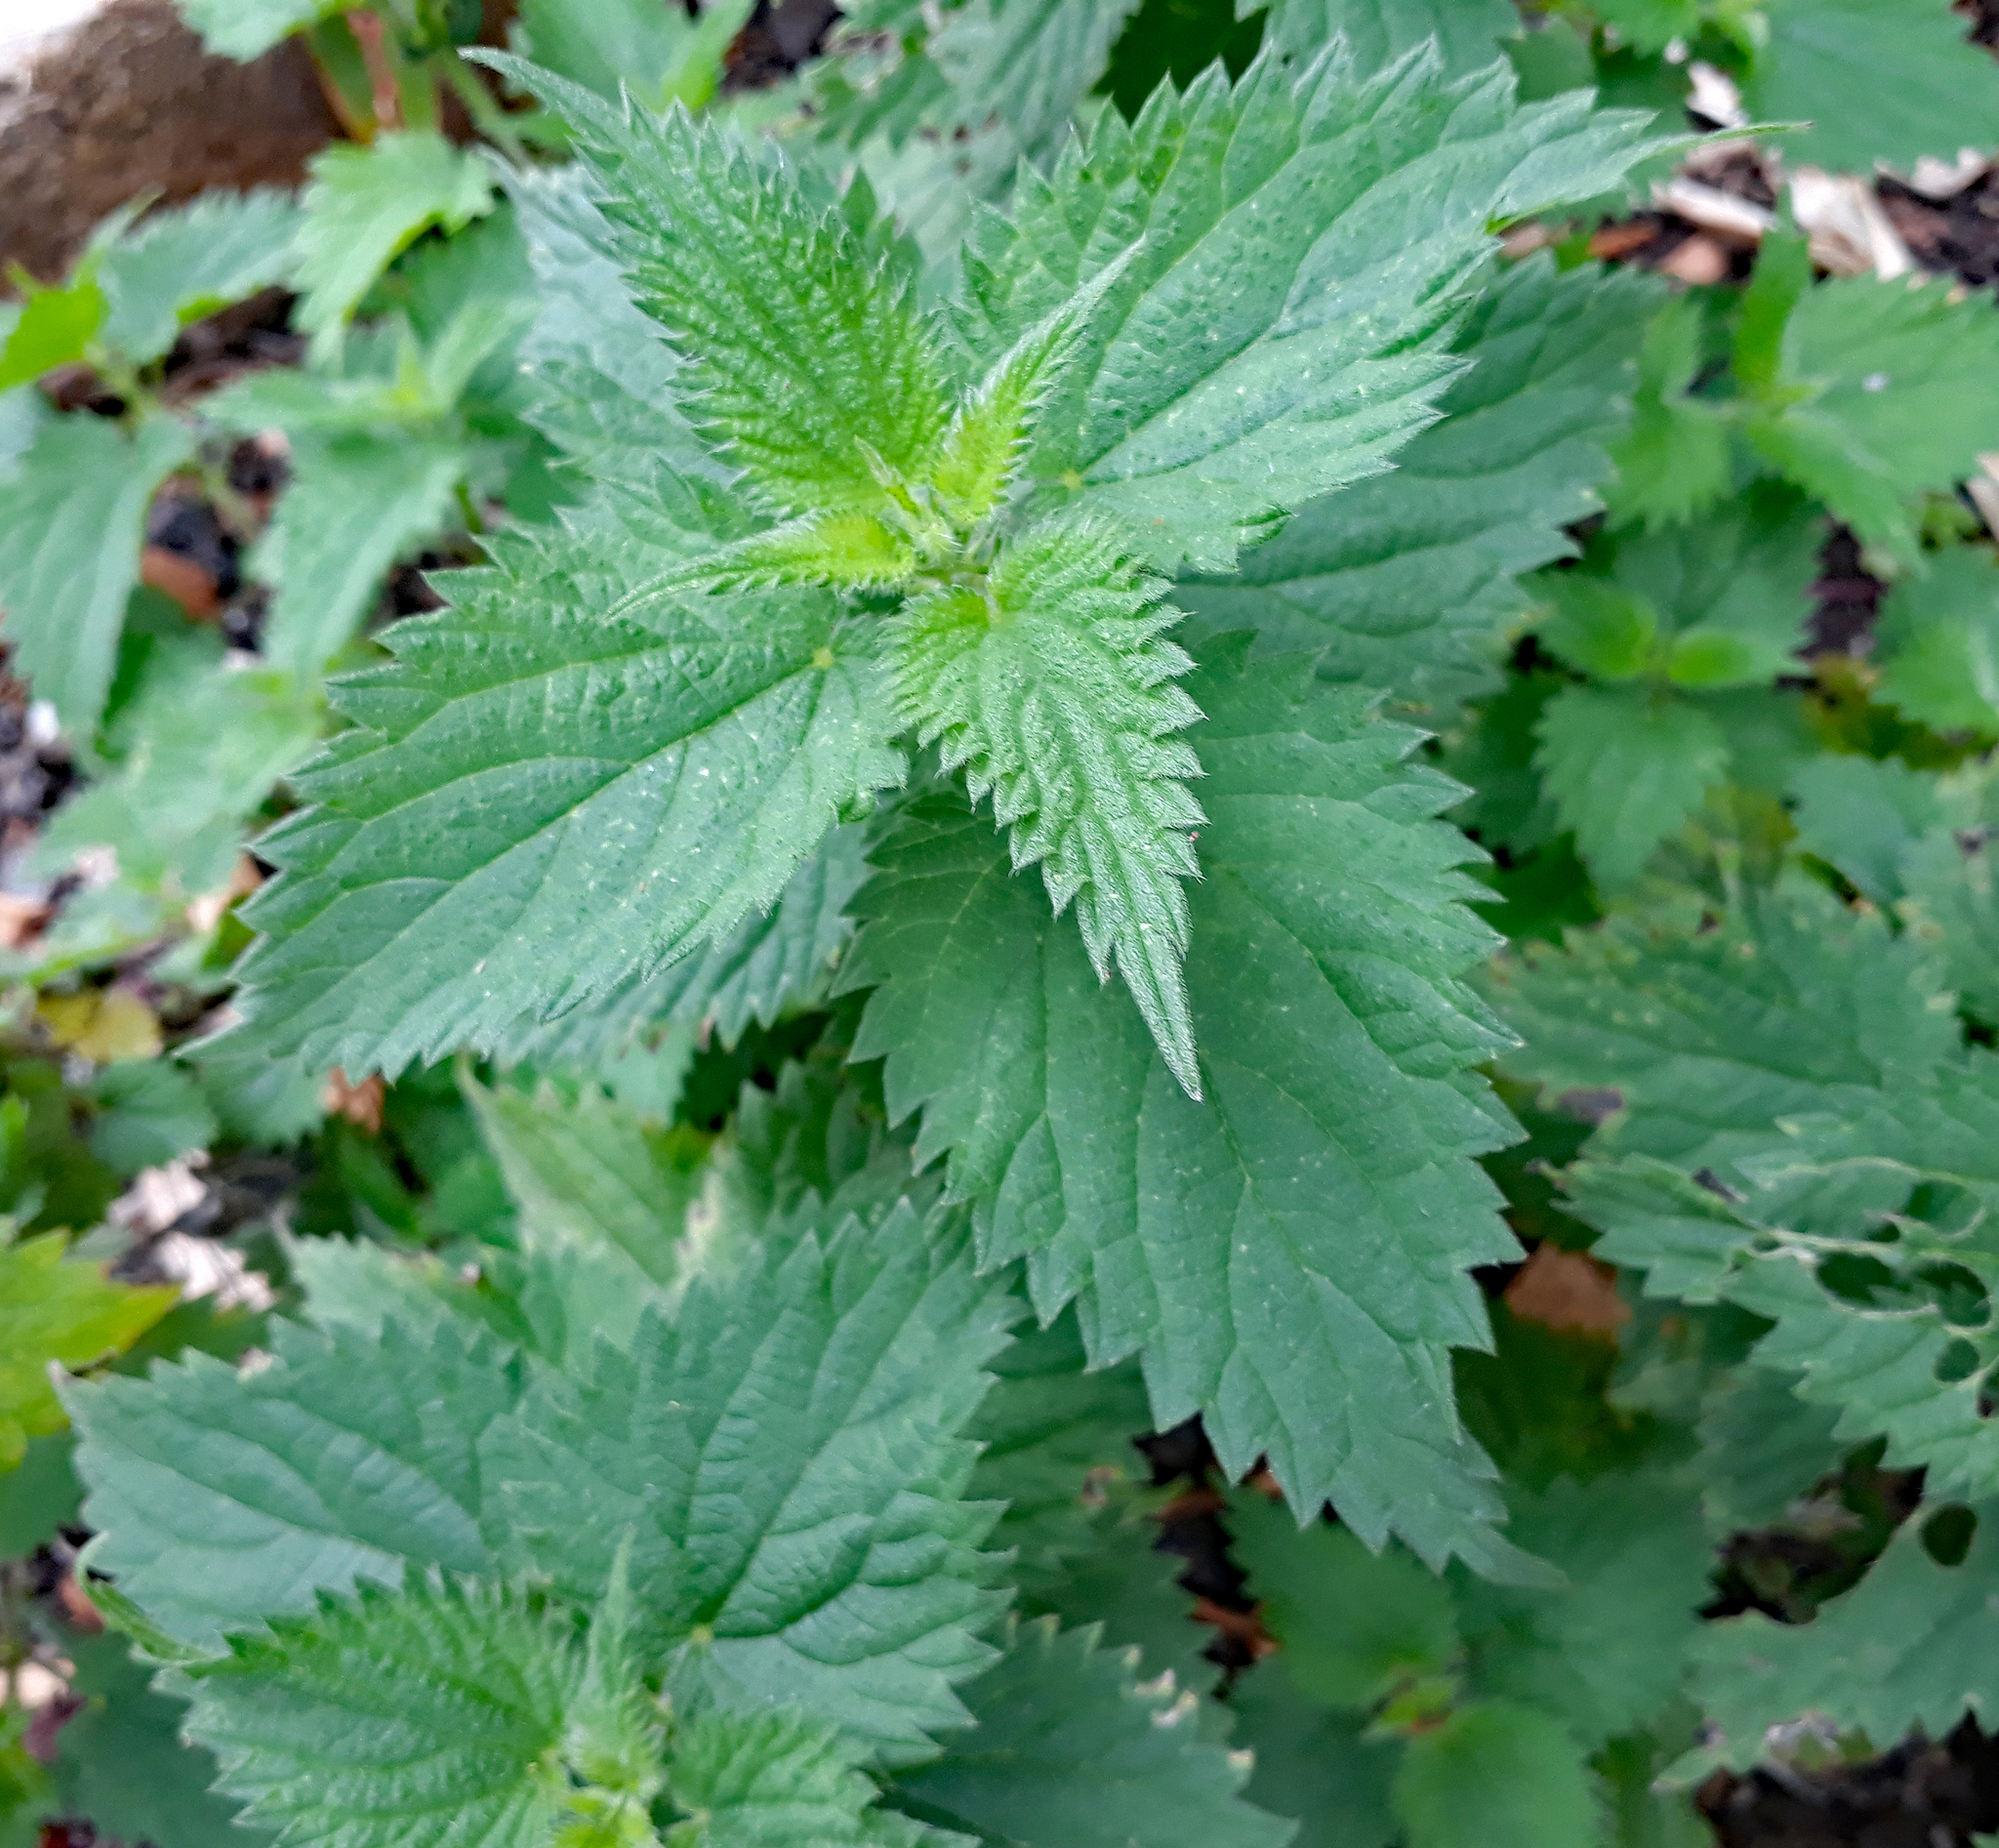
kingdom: Plantae
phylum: Tracheophyta
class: Magnoliopsida
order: Rosales
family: Urticaceae
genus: Urtica
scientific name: Urtica dioica
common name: Common nettle
